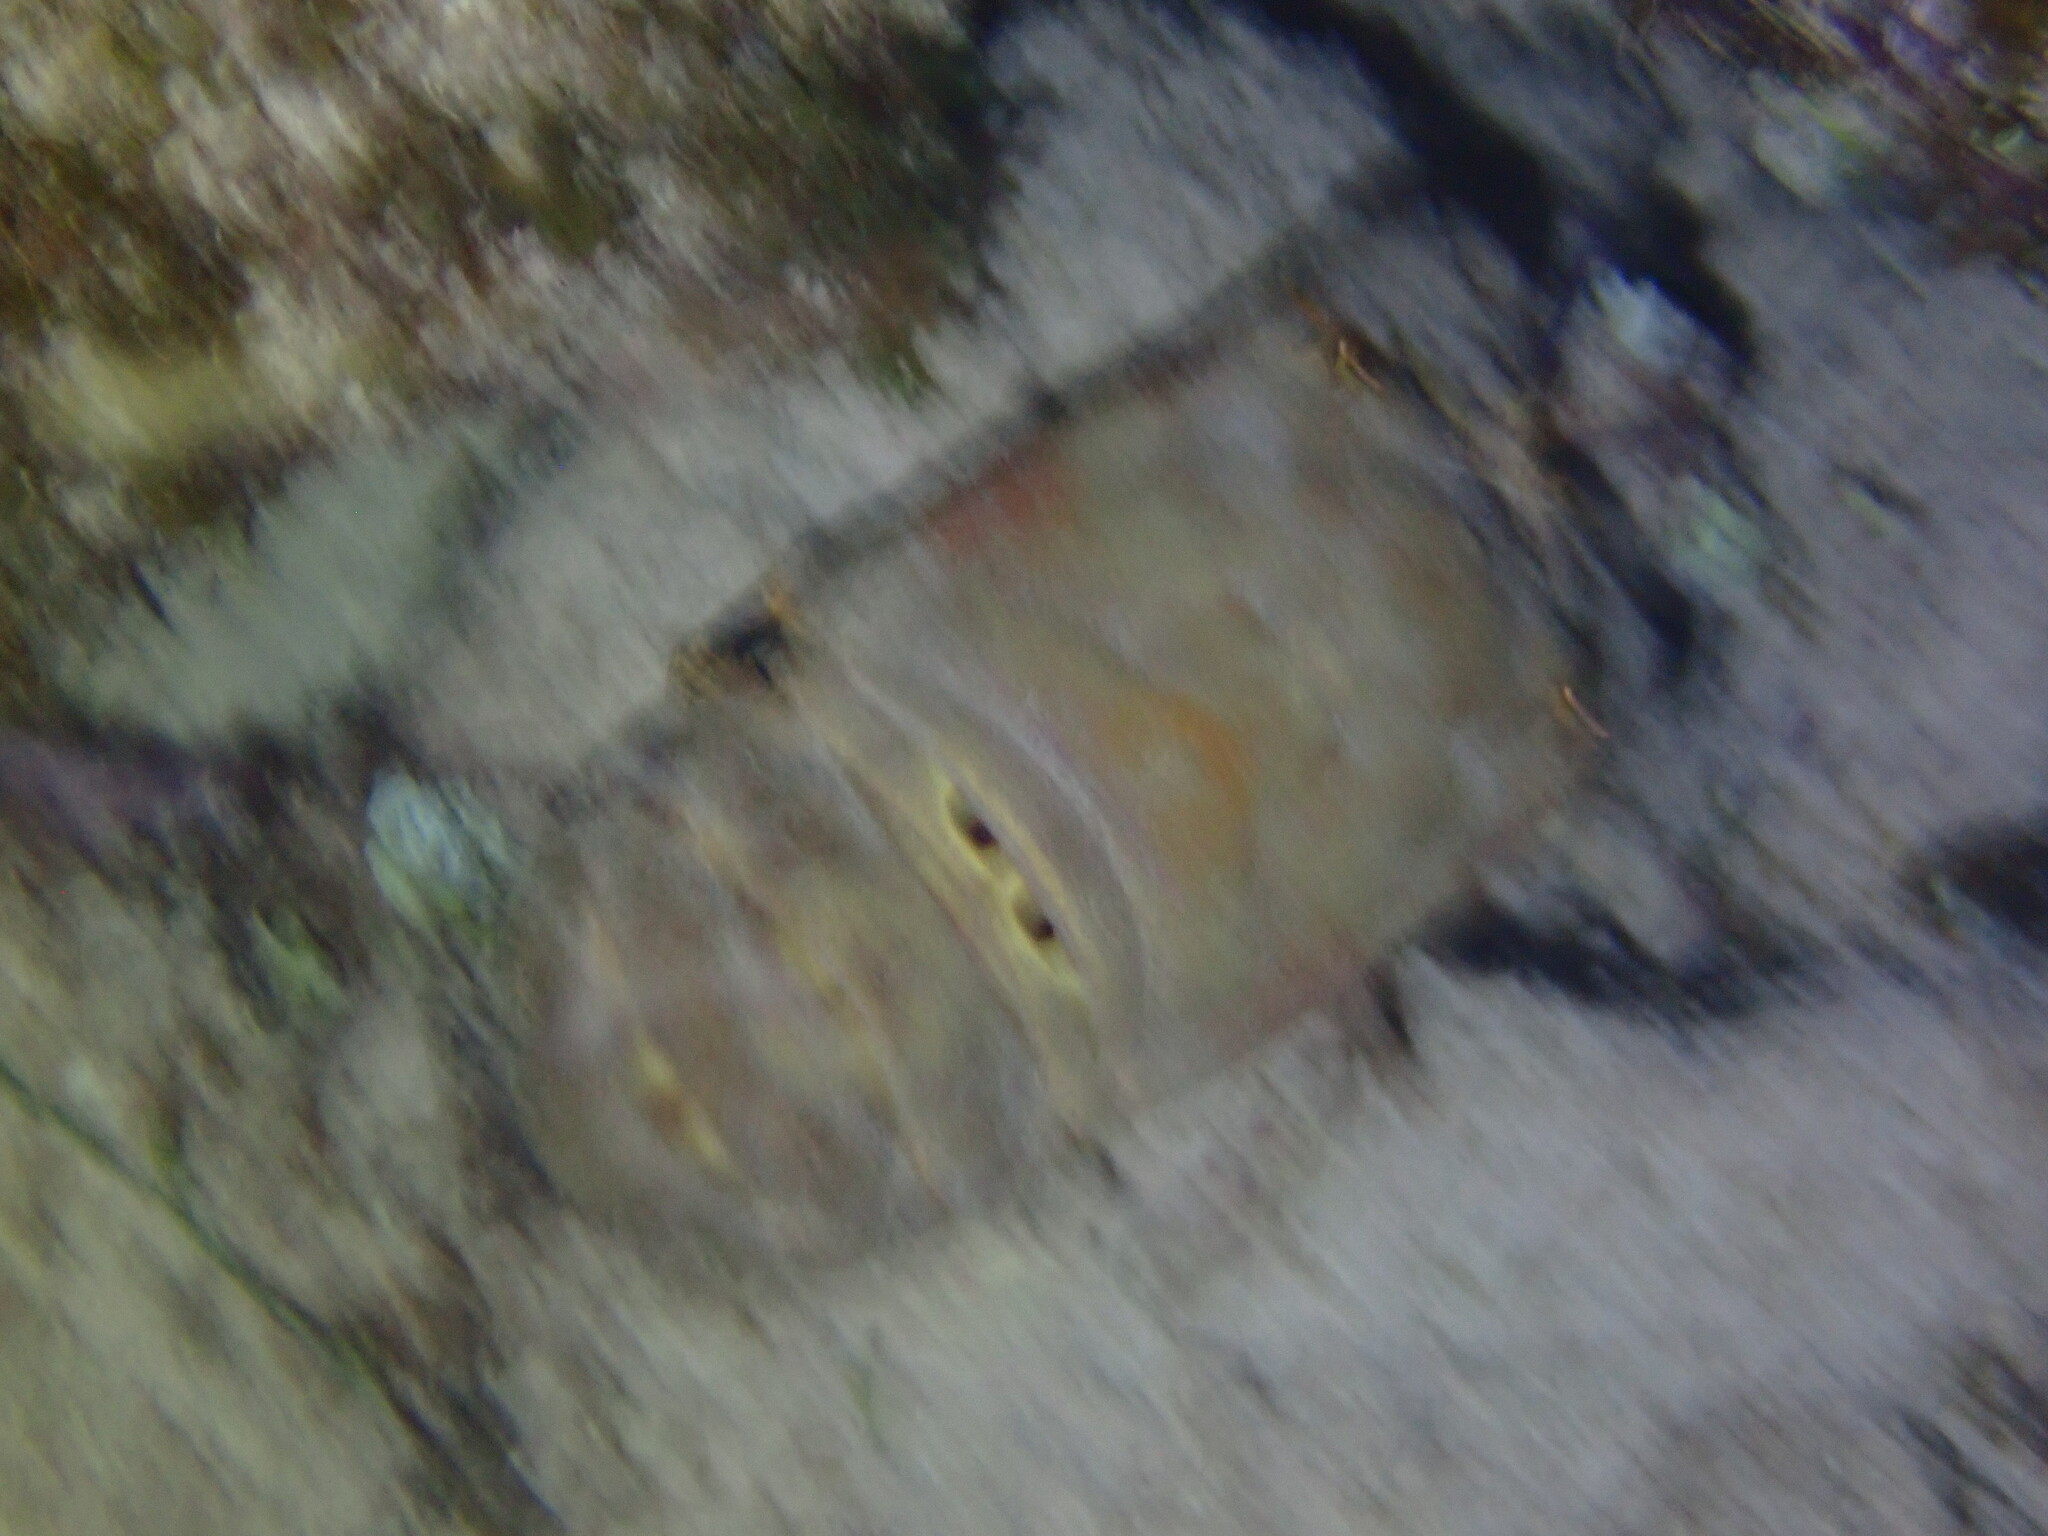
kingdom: Animalia
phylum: Arthropoda
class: Malacostraca
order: Decapoda
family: Scyllaridae
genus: Scyllarides
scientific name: Scyllarides aequinoctialis
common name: Spanish slipper lobster
